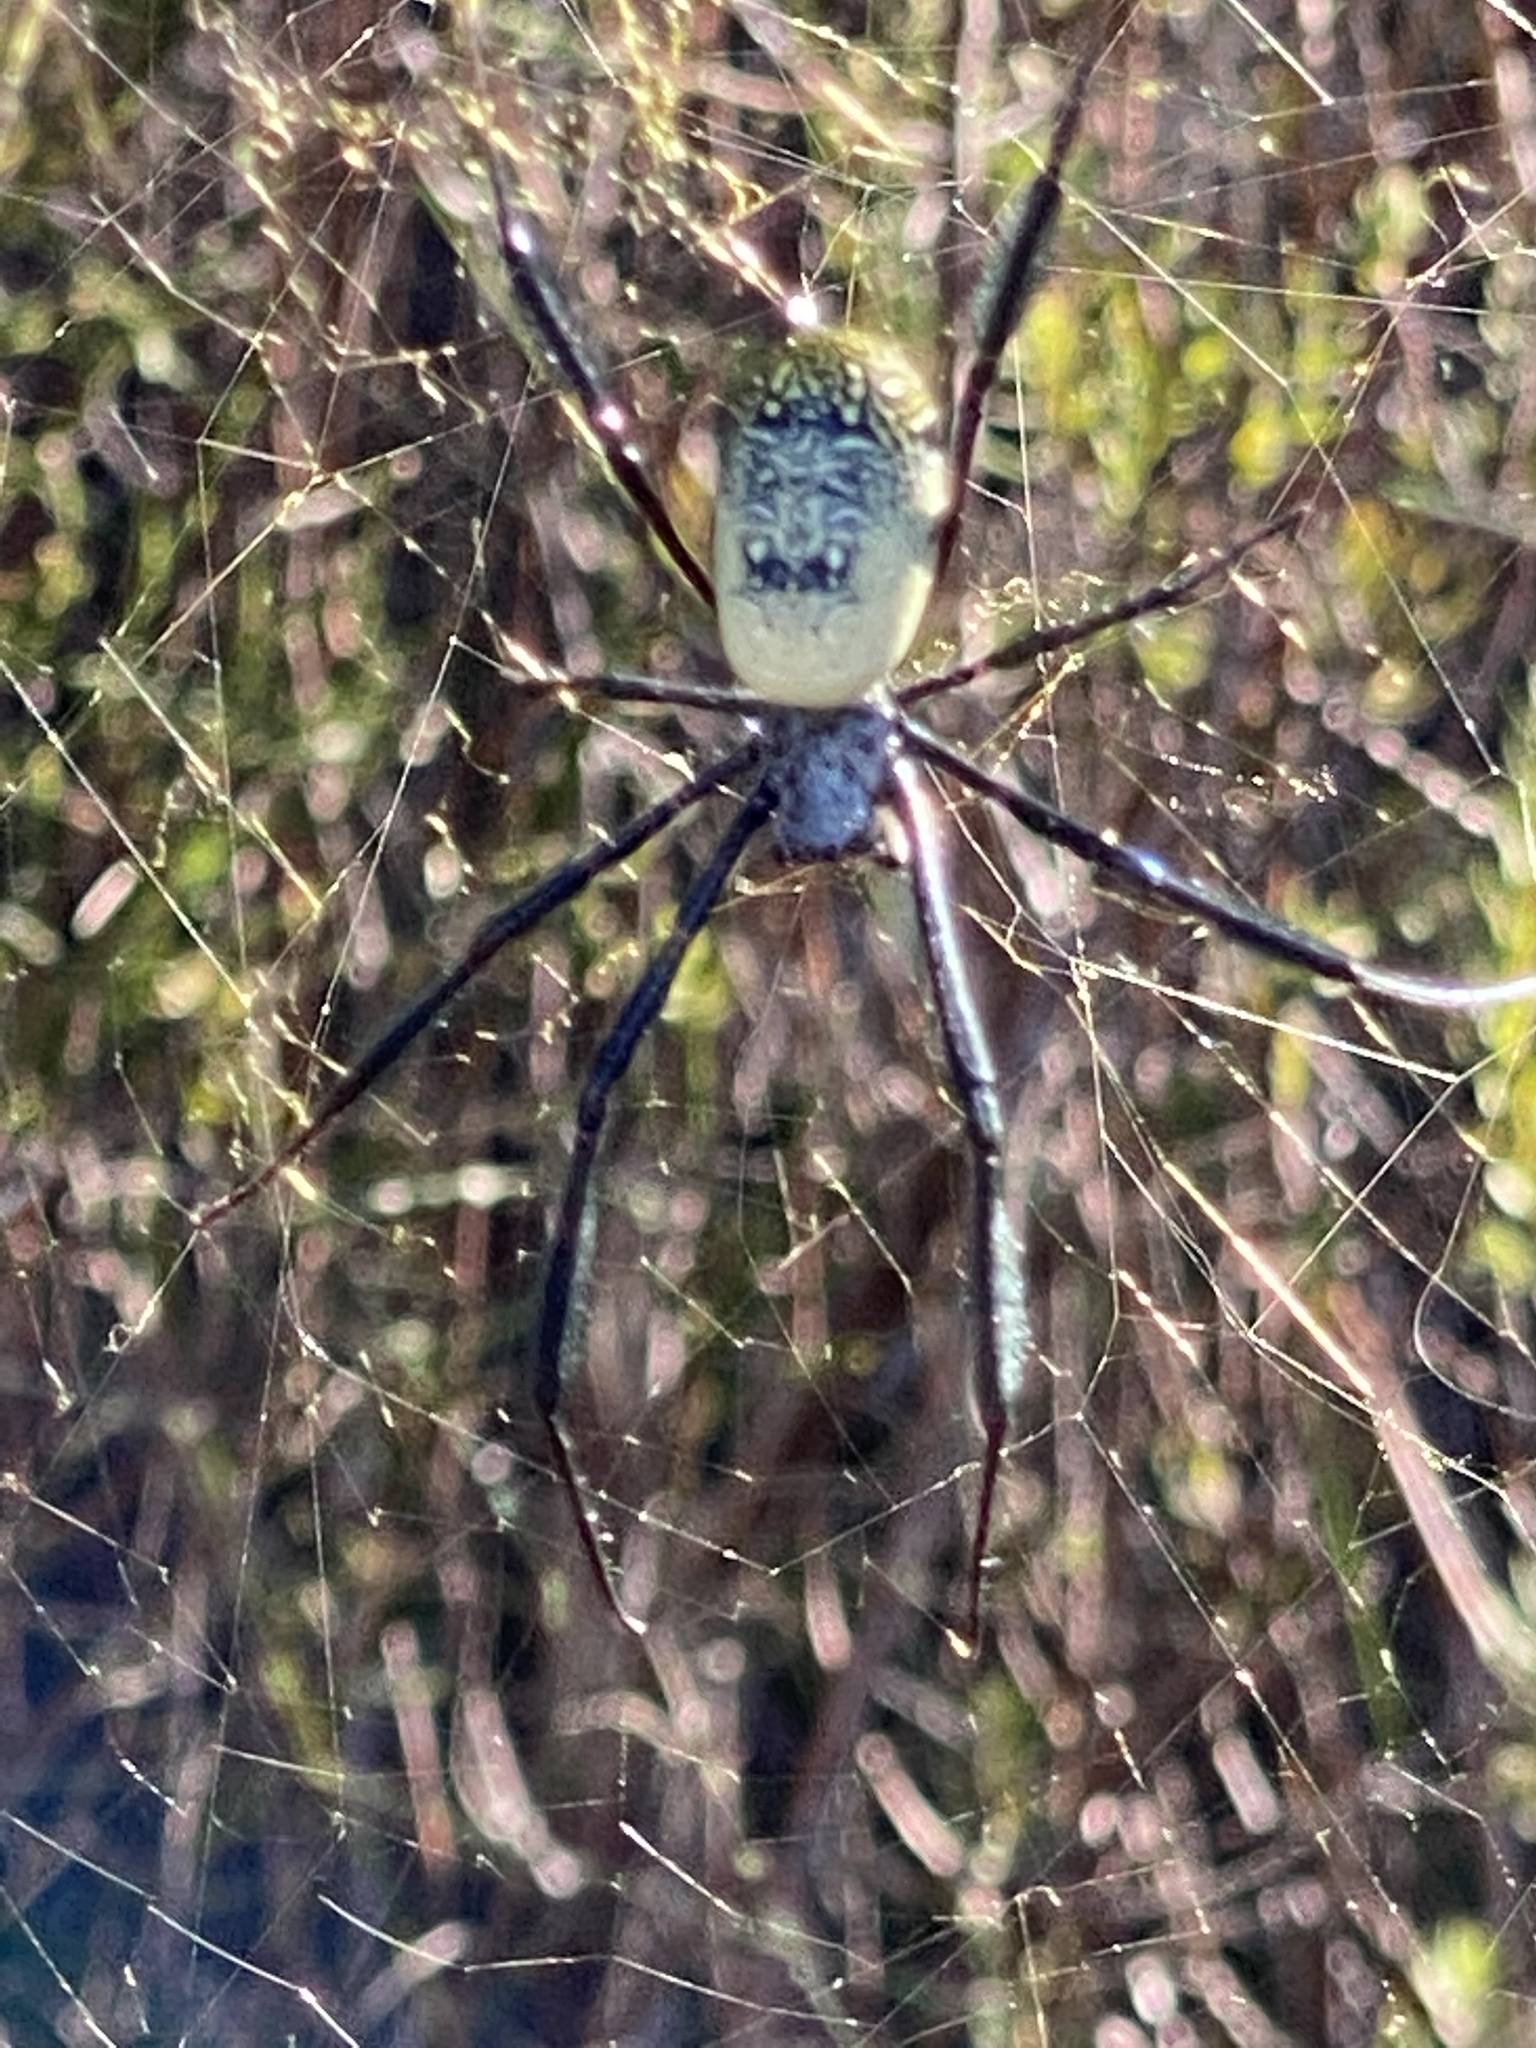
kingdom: Animalia
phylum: Arthropoda
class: Arachnida
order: Araneae
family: Araneidae
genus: Trichonephila
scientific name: Trichonephila fenestrata
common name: Hairy golden orb weaver
